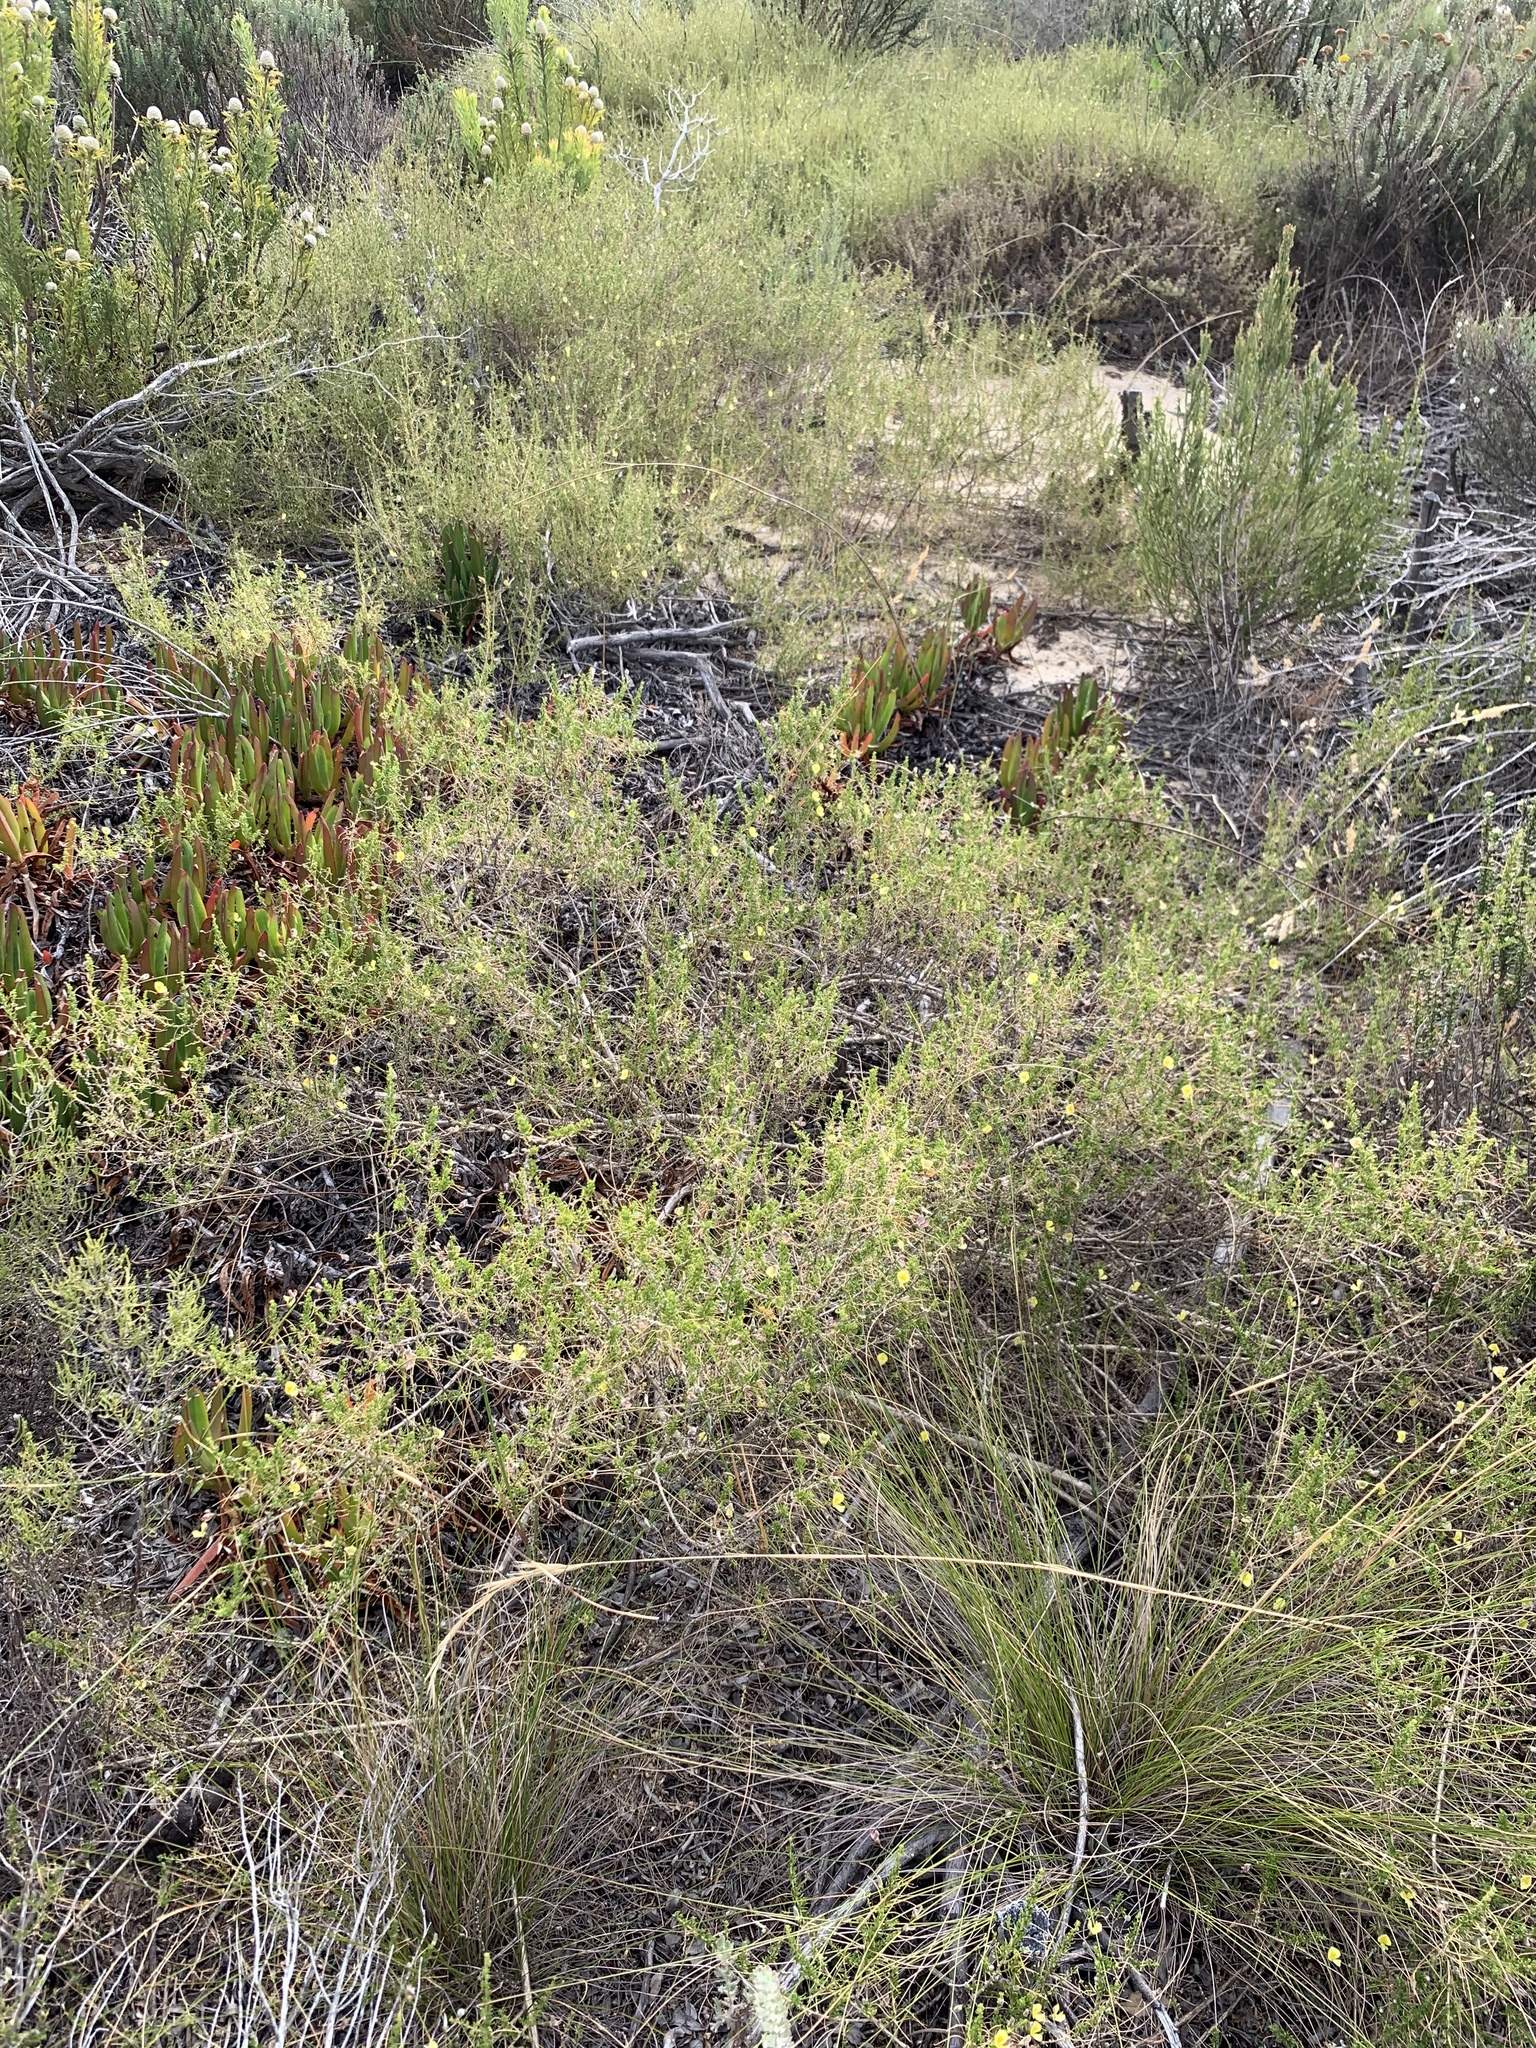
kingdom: Plantae
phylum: Tracheophyta
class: Magnoliopsida
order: Fabales
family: Fabaceae
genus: Aspalathus
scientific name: Aspalathus serpens
